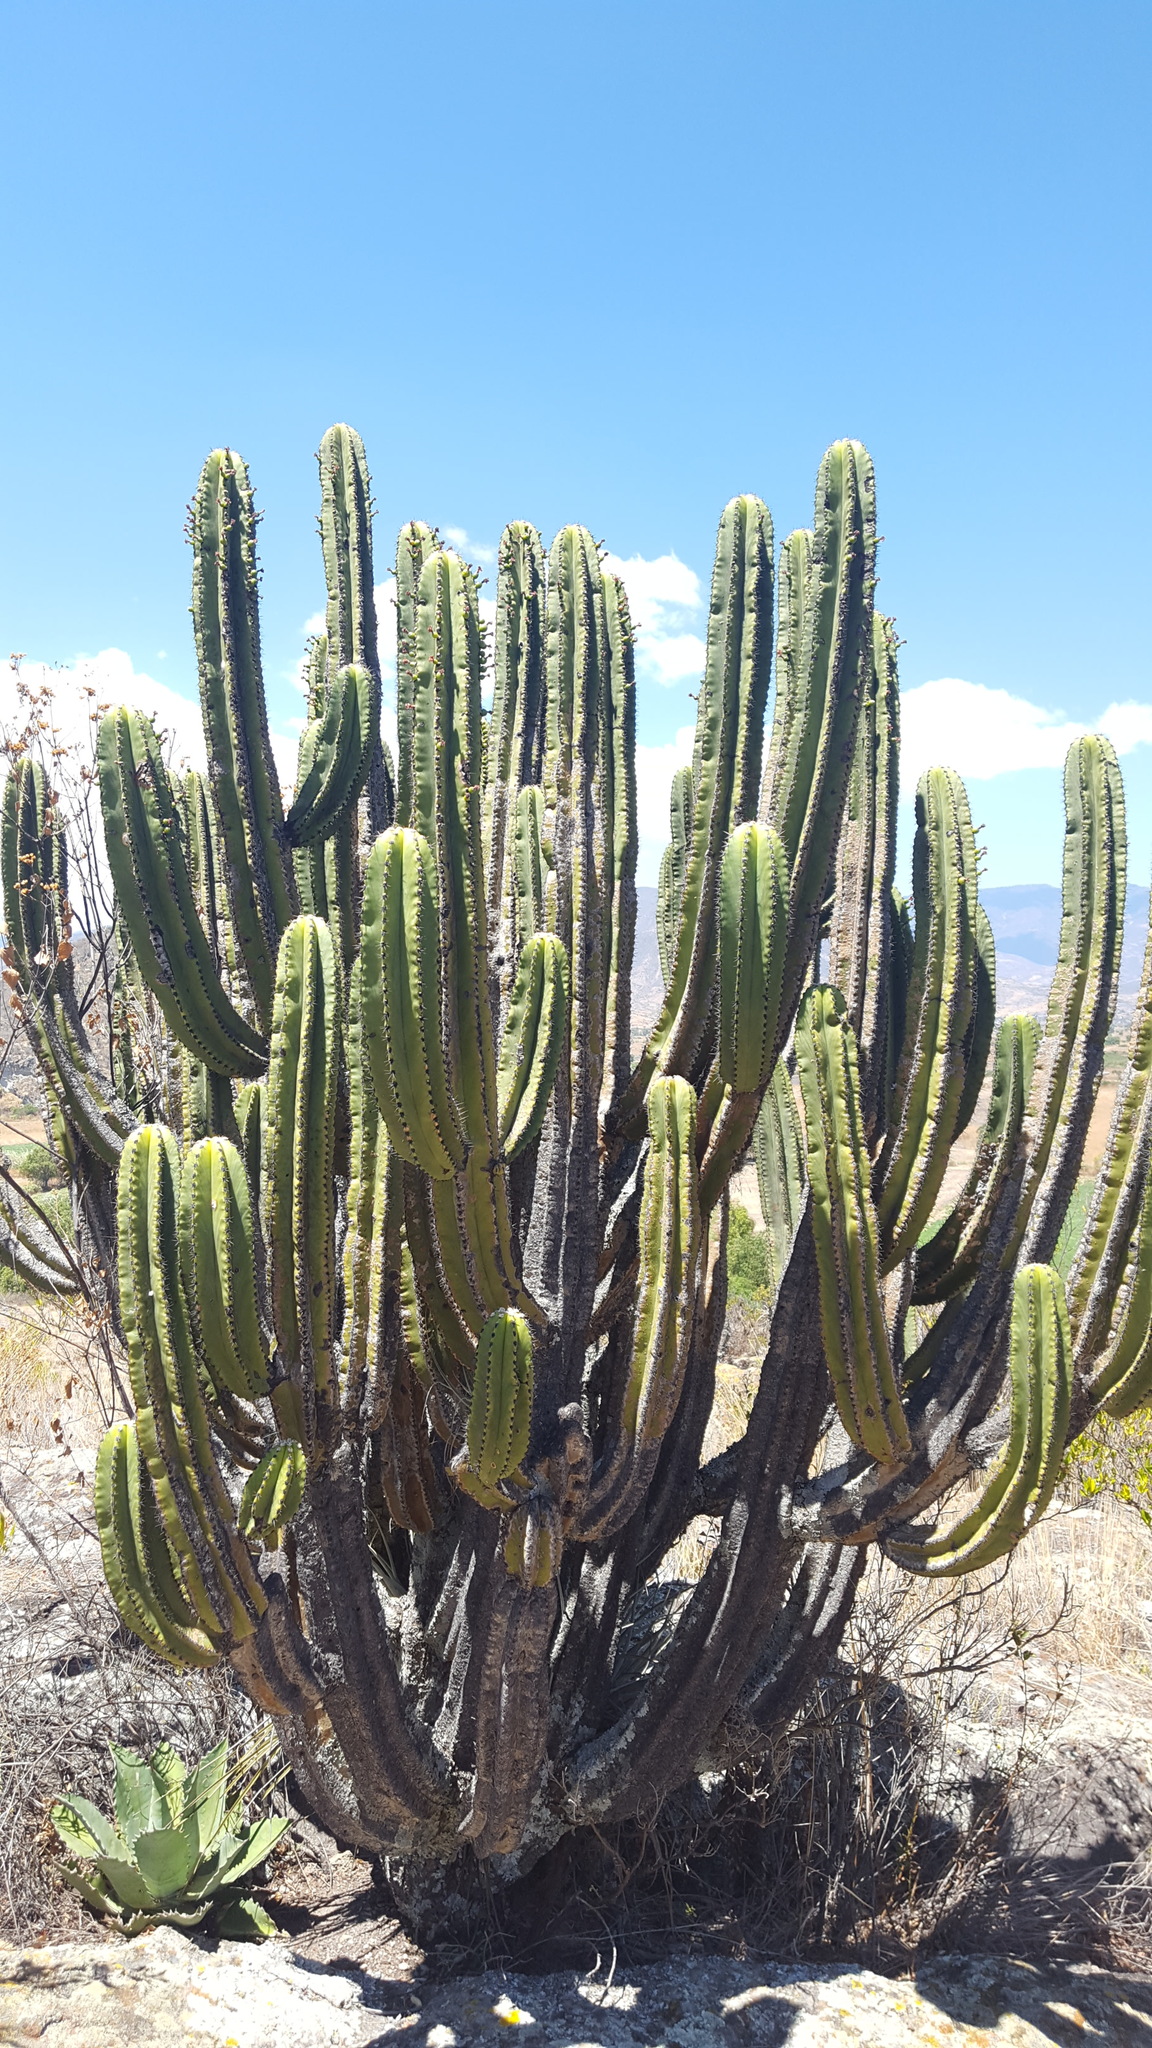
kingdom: Plantae
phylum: Tracheophyta
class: Magnoliopsida
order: Caryophyllales
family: Cactaceae
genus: Myrtillocactus
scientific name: Myrtillocactus schenckii
